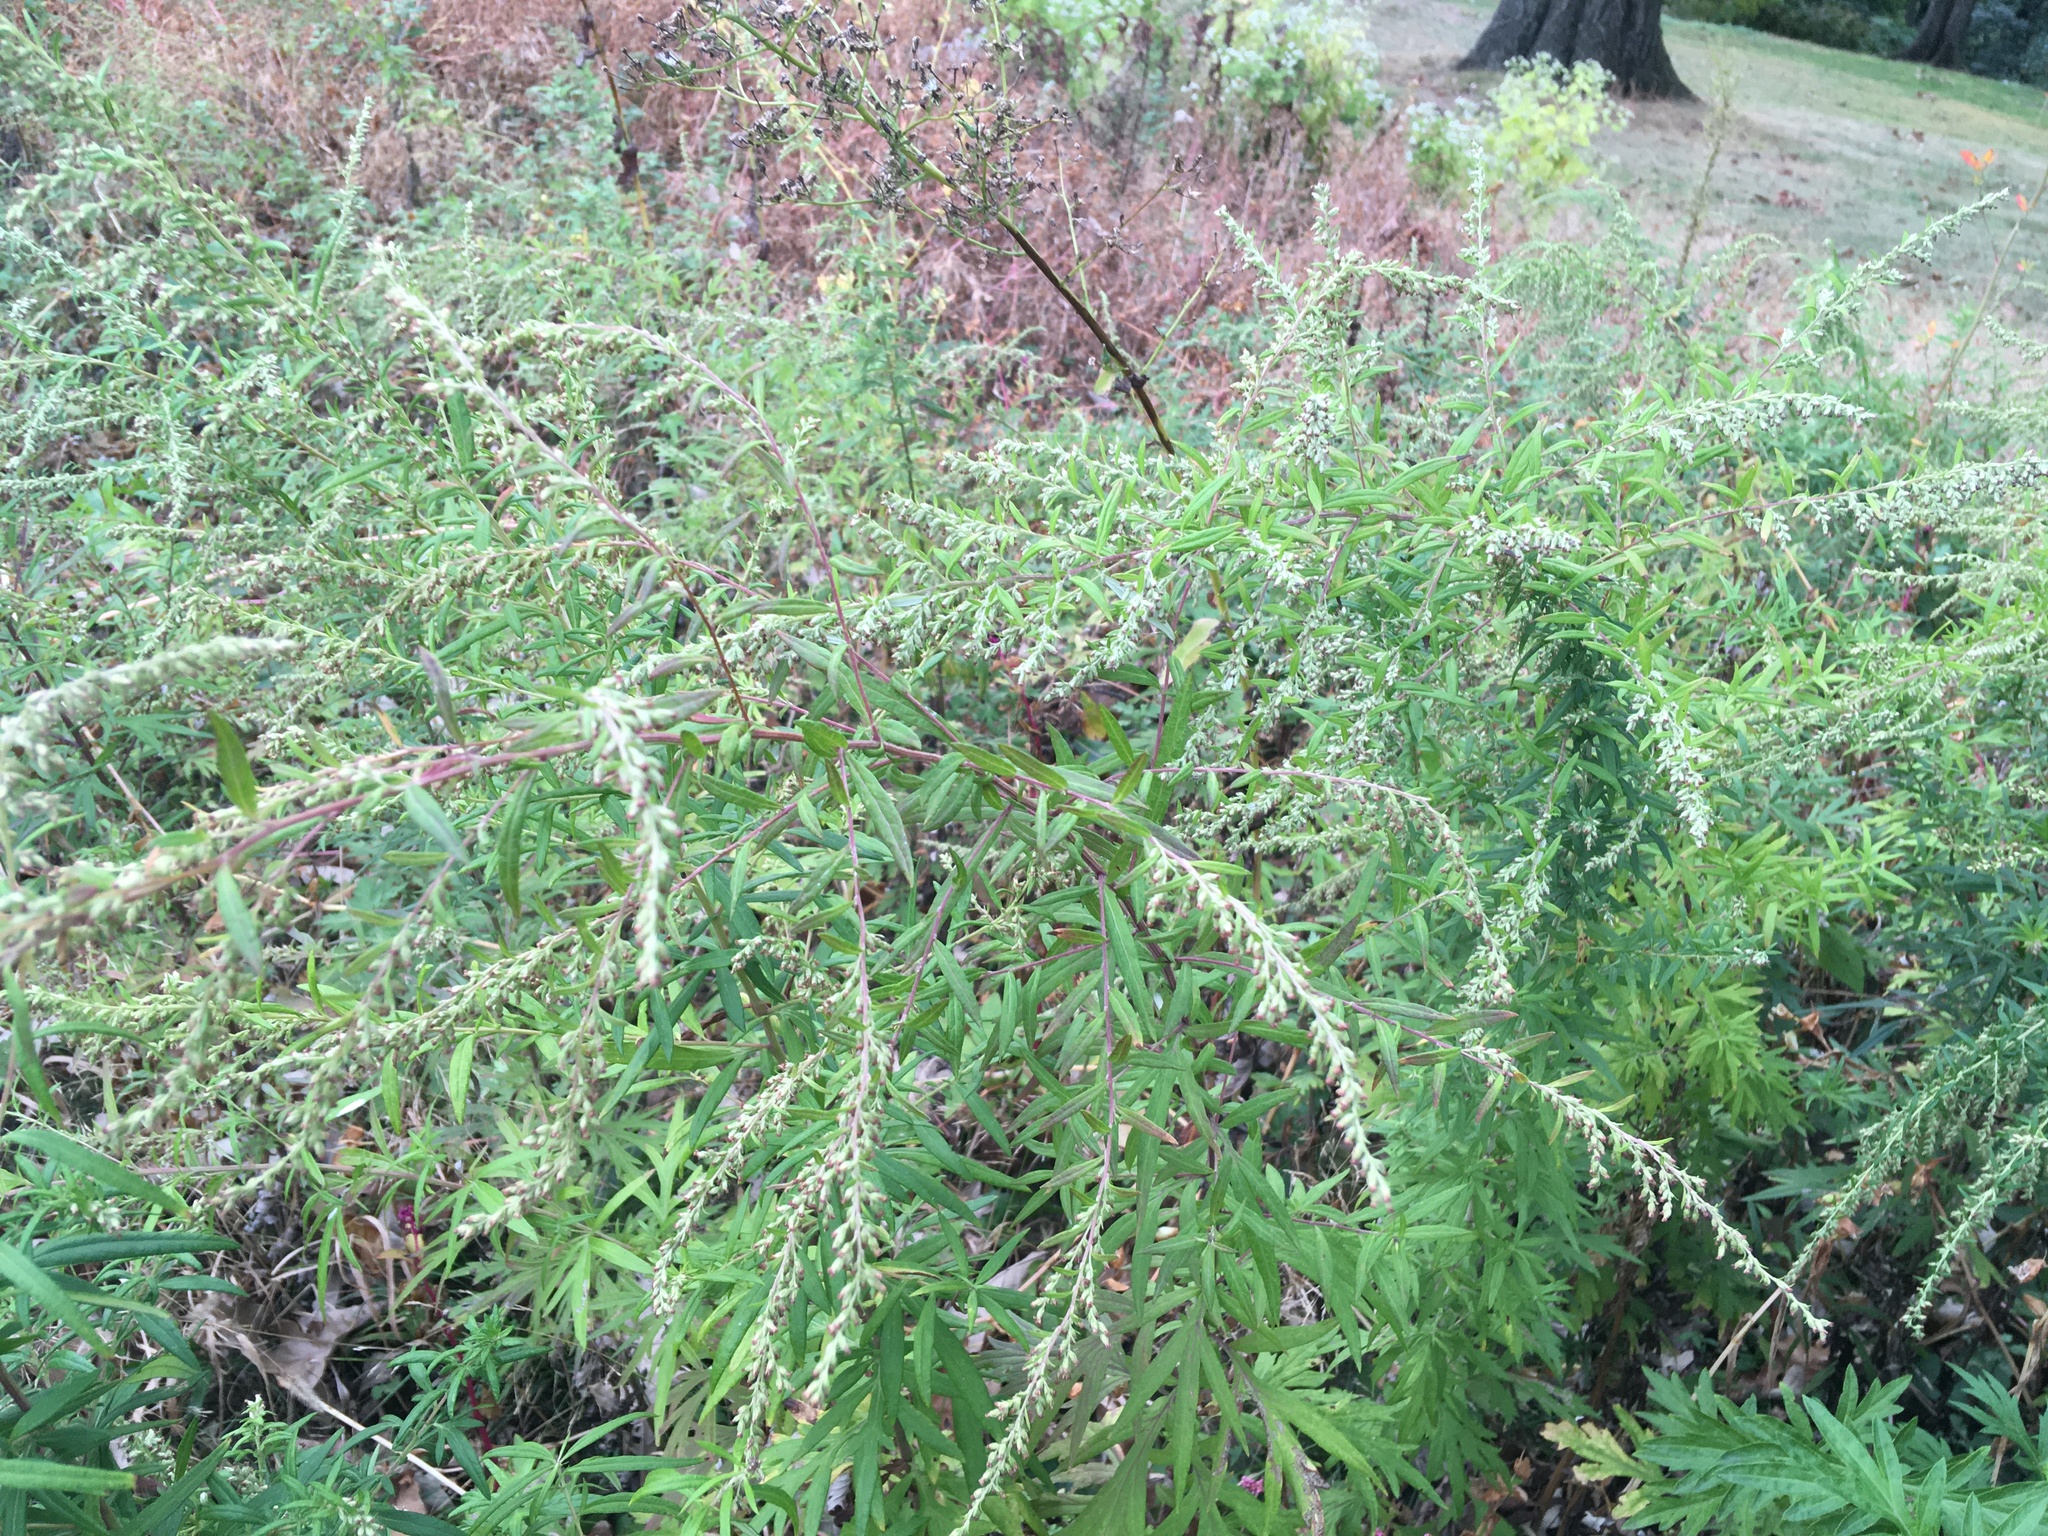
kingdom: Plantae
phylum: Tracheophyta
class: Magnoliopsida
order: Asterales
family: Asteraceae
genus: Artemisia
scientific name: Artemisia vulgaris
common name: Mugwort
